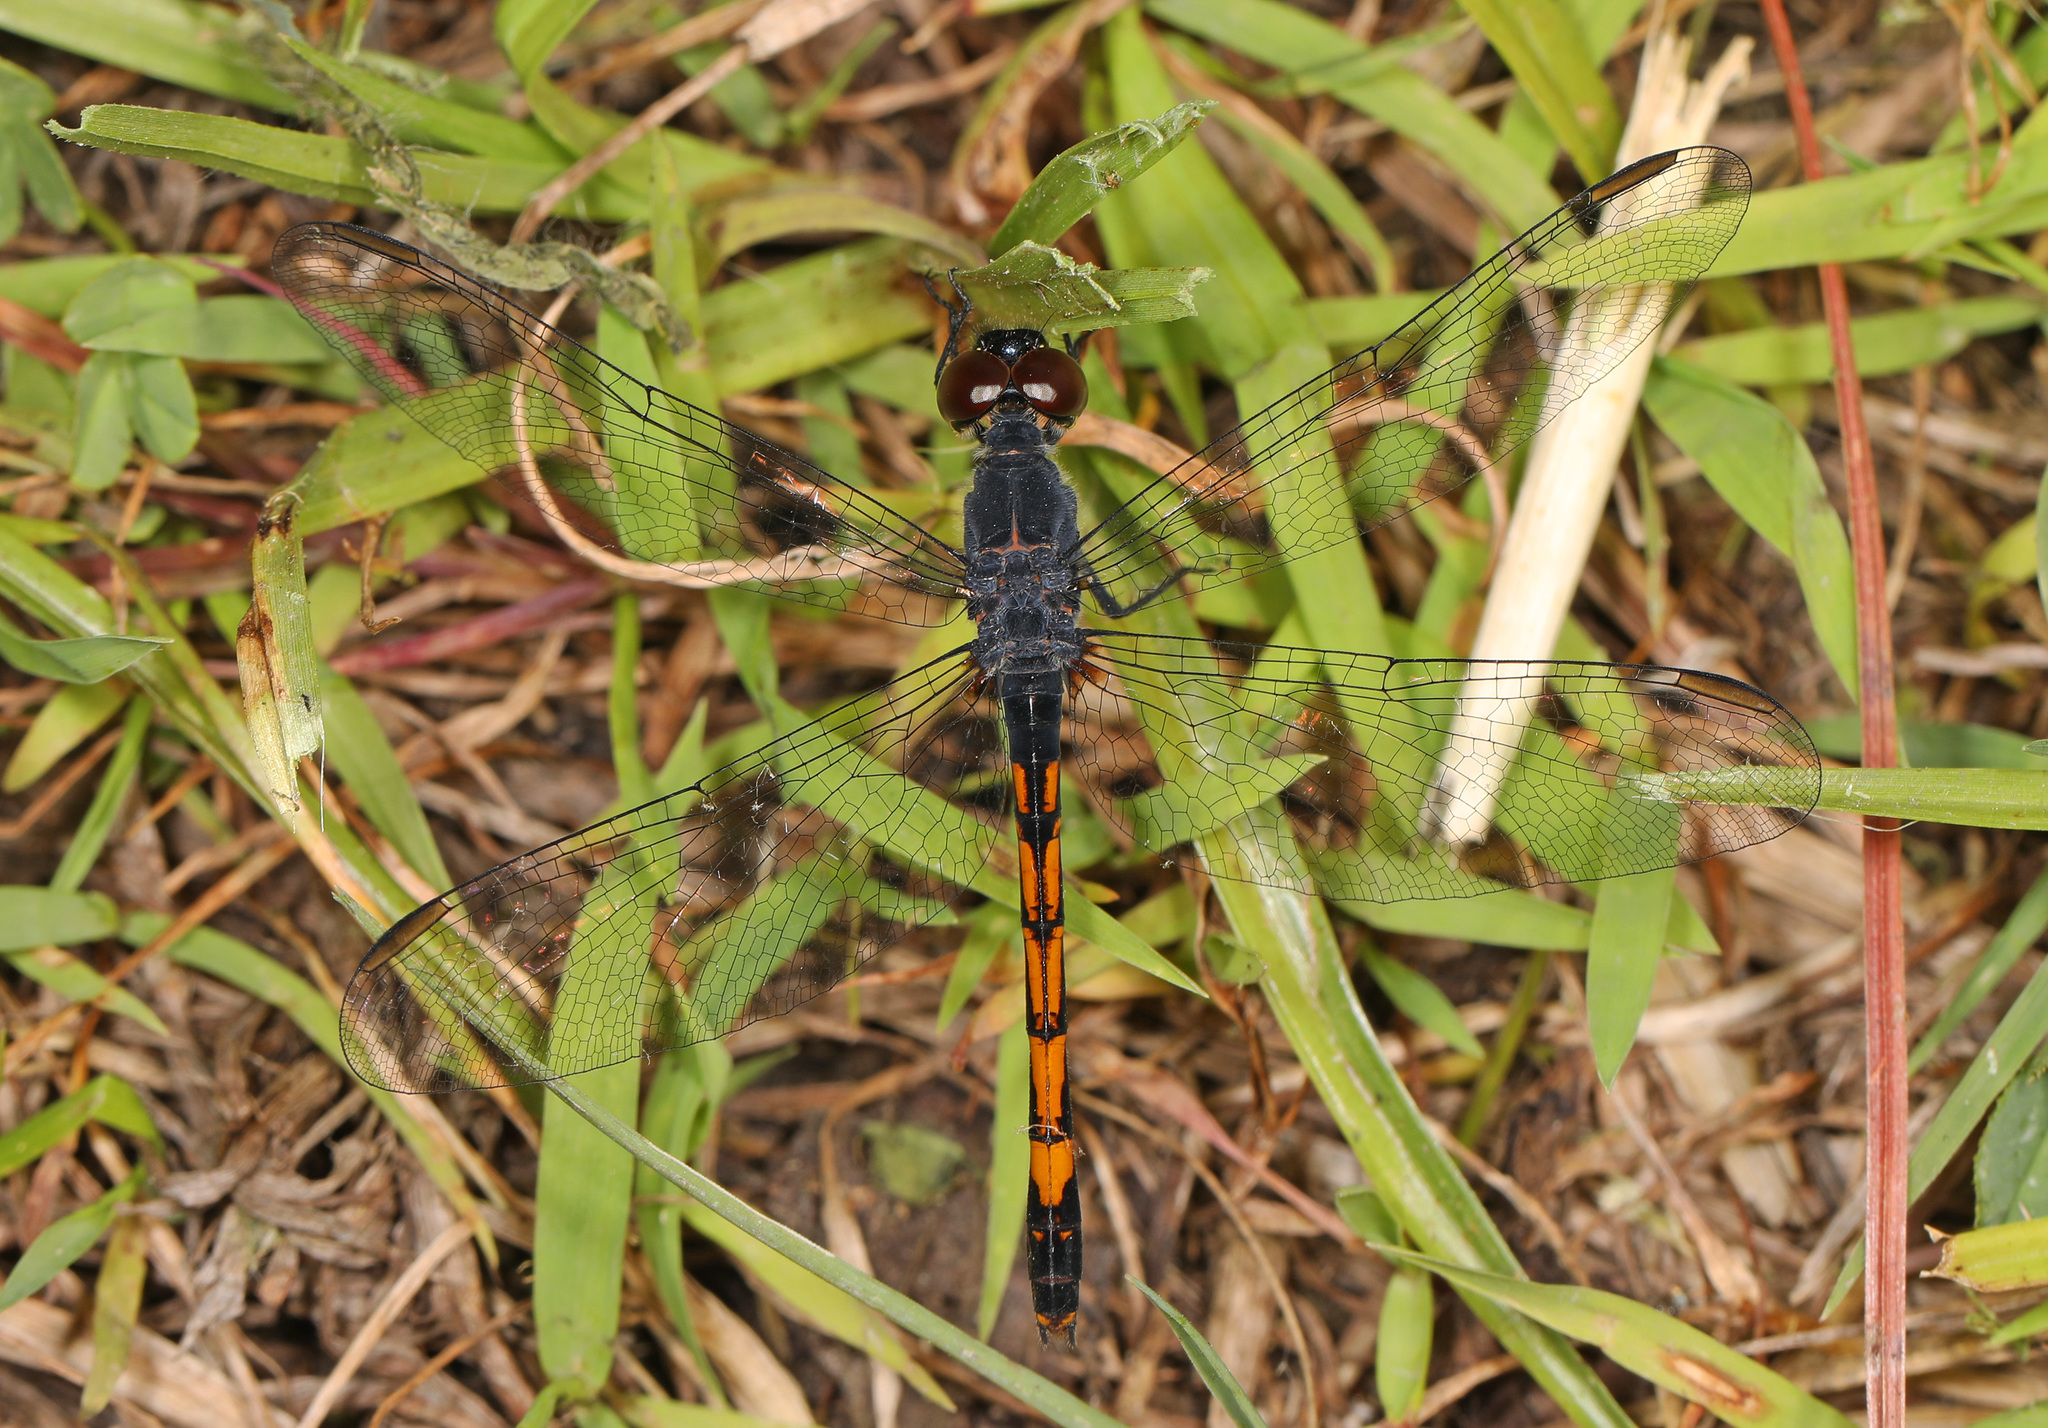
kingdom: Animalia
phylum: Arthropoda
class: Insecta
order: Odonata
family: Libellulidae
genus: Erythrodiplax
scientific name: Erythrodiplax berenice
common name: Seaside dragonlet
